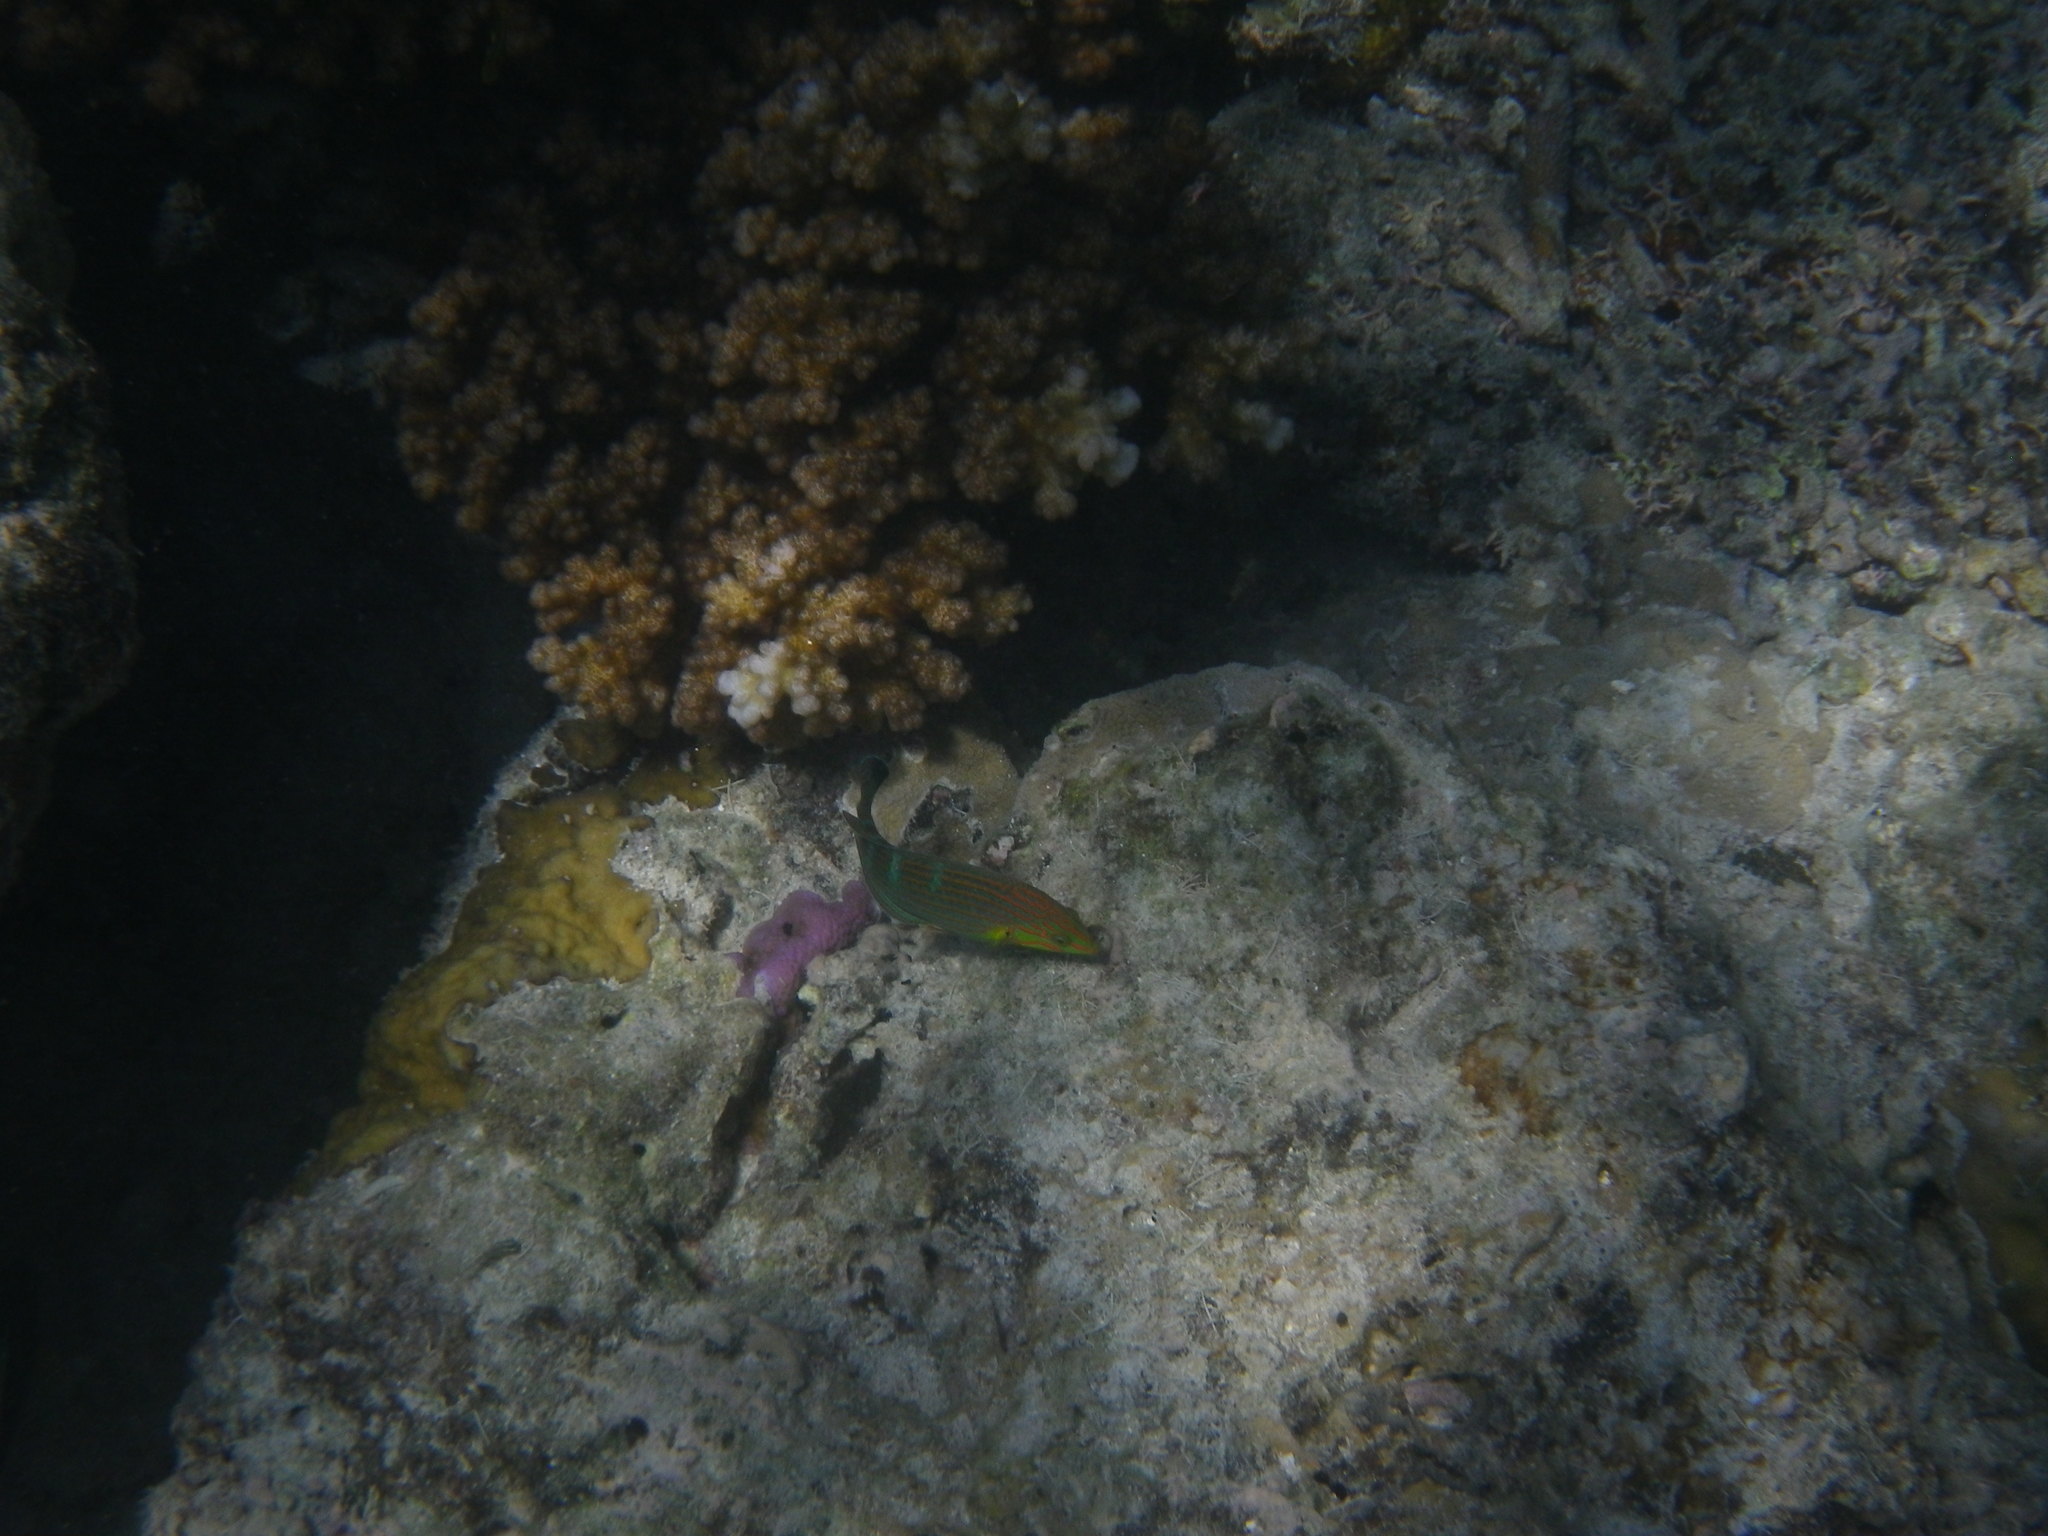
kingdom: Animalia
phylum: Chordata
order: Perciformes
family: Labridae
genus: Halichoeres
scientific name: Halichoeres melanurus
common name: Hoeven's wrasse
